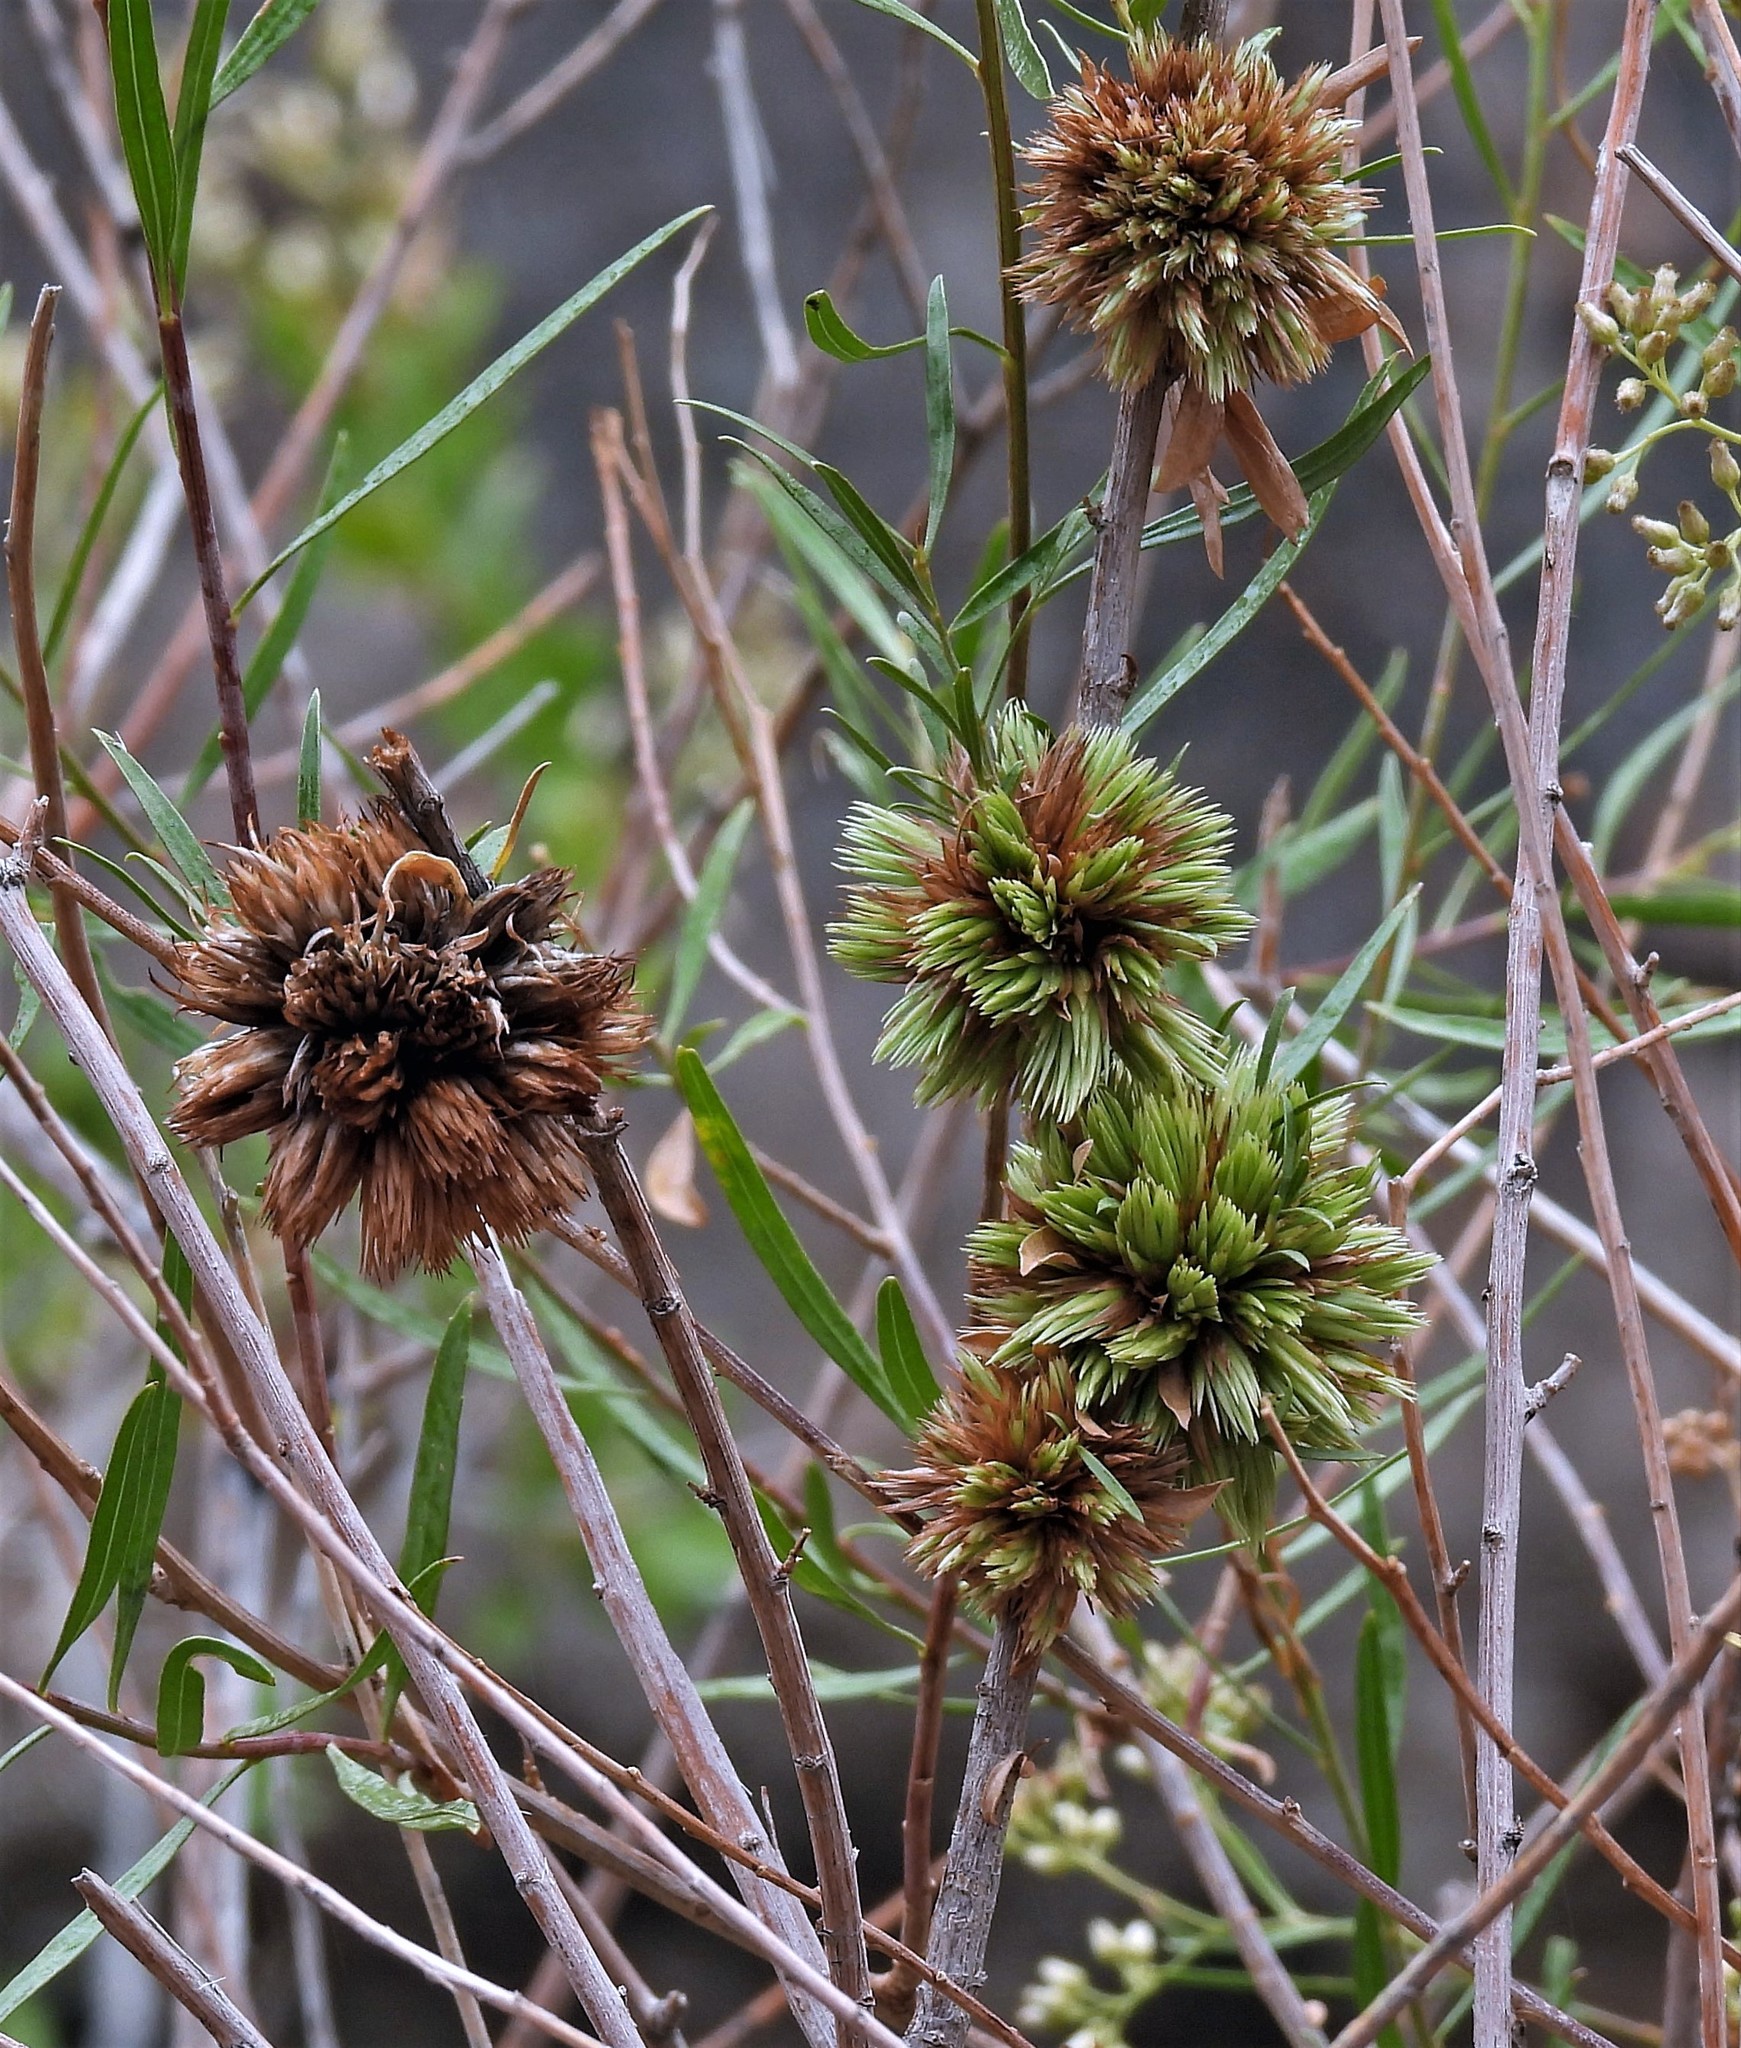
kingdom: Plantae
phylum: Tracheophyta
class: Magnoliopsida
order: Asterales
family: Asteraceae
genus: Baccharis
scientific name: Baccharis salicifolia
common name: Sticky baccharis
